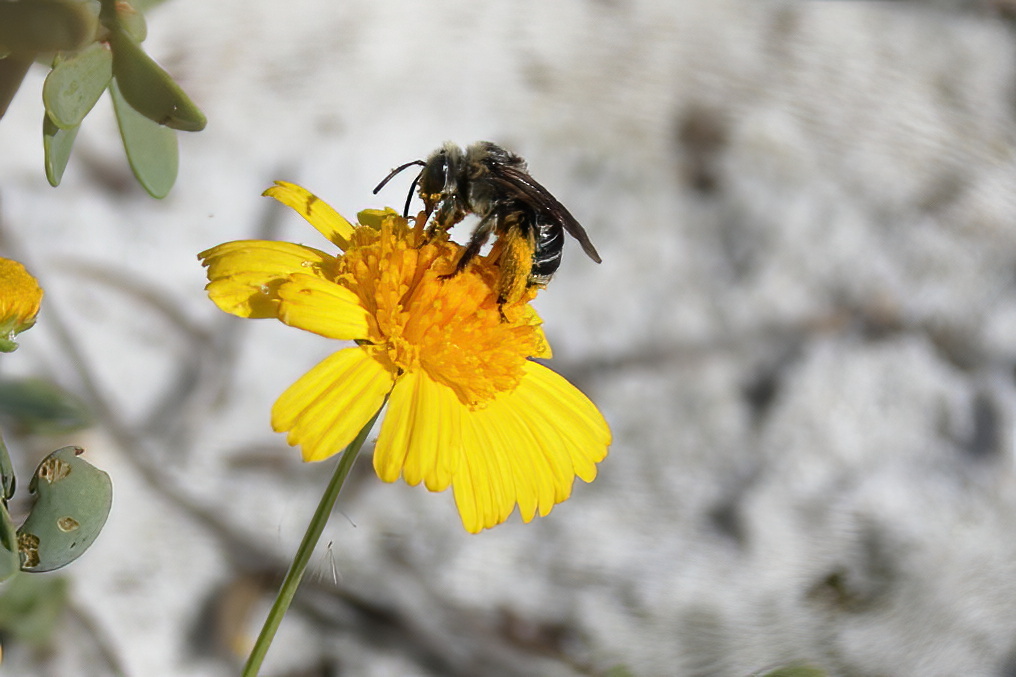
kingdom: Animalia
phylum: Arthropoda
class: Insecta
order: Hymenoptera
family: Apidae
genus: Melissodes
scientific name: Melissodes communis
